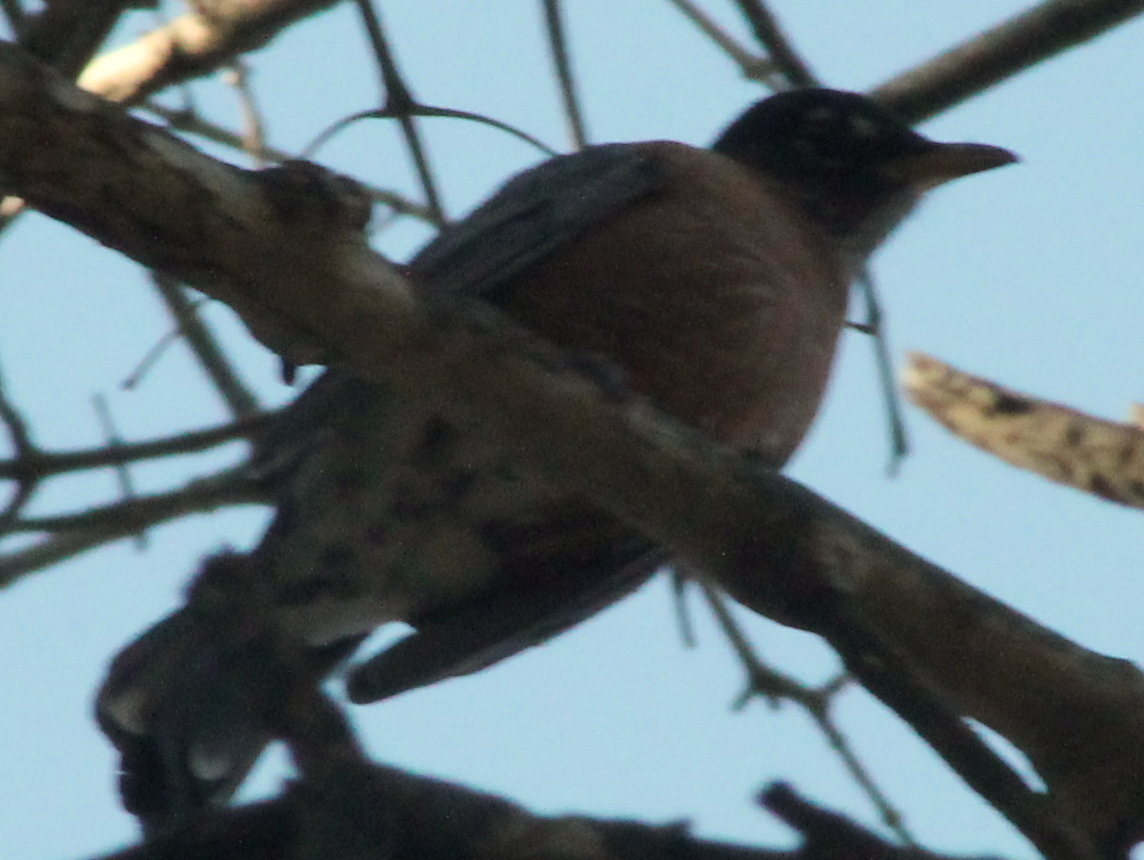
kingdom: Animalia
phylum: Chordata
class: Aves
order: Passeriformes
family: Turdidae
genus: Turdus
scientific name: Turdus migratorius
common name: American robin
